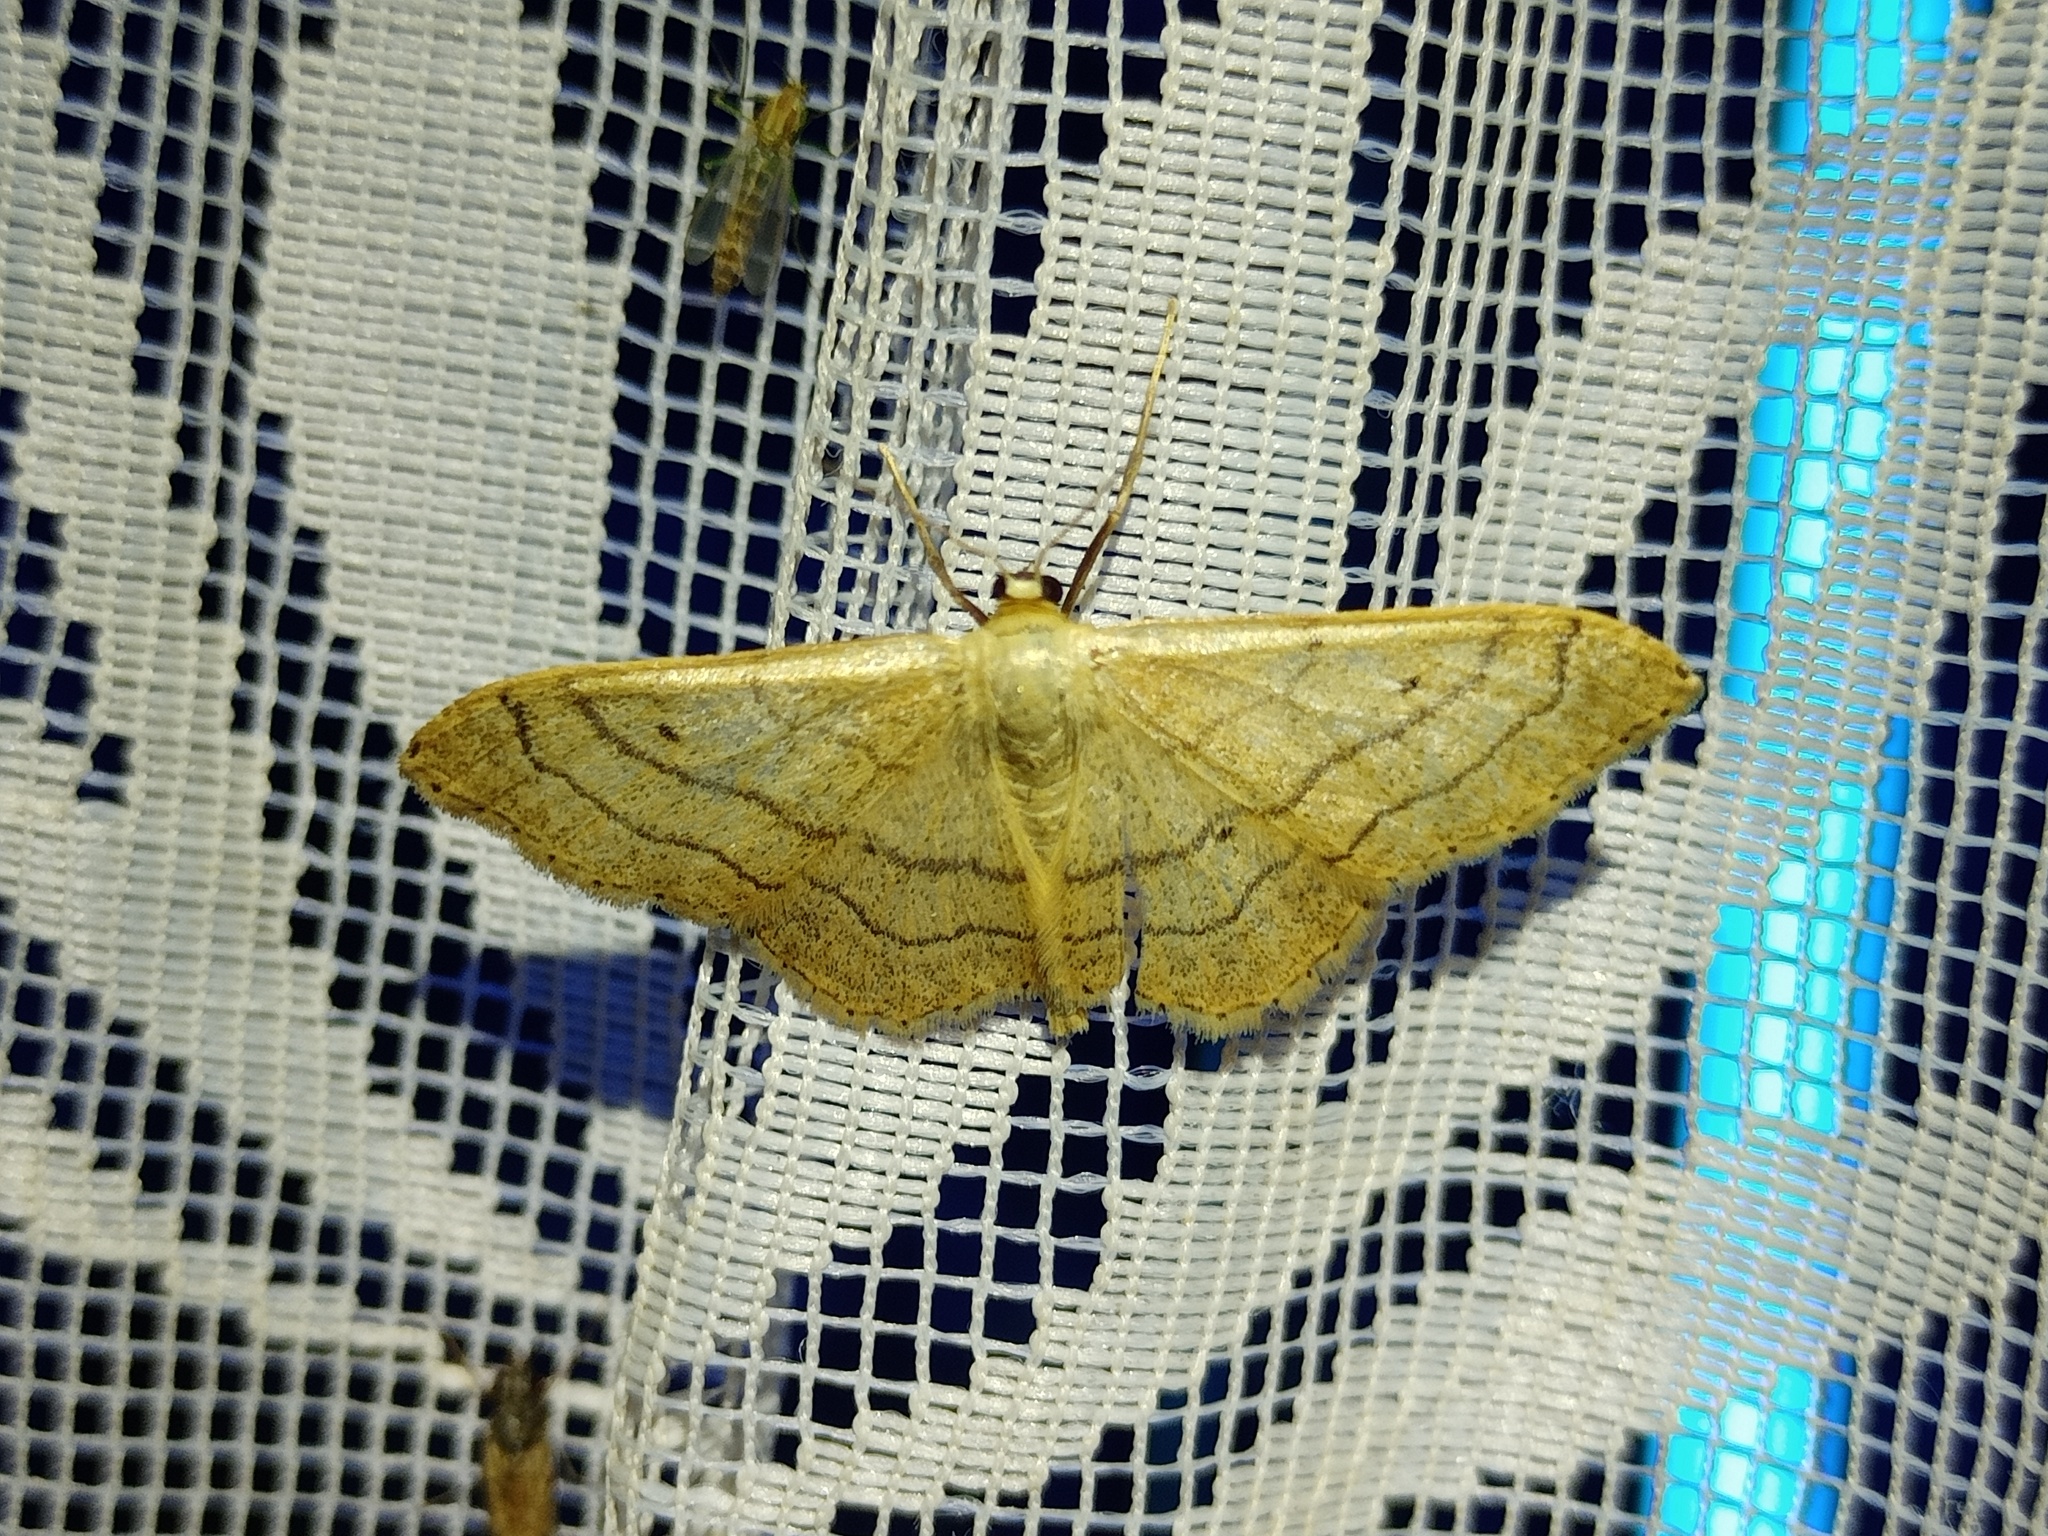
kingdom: Animalia
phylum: Arthropoda
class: Insecta
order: Lepidoptera
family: Geometridae
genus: Idaea
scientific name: Idaea aversata
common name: Riband wave
